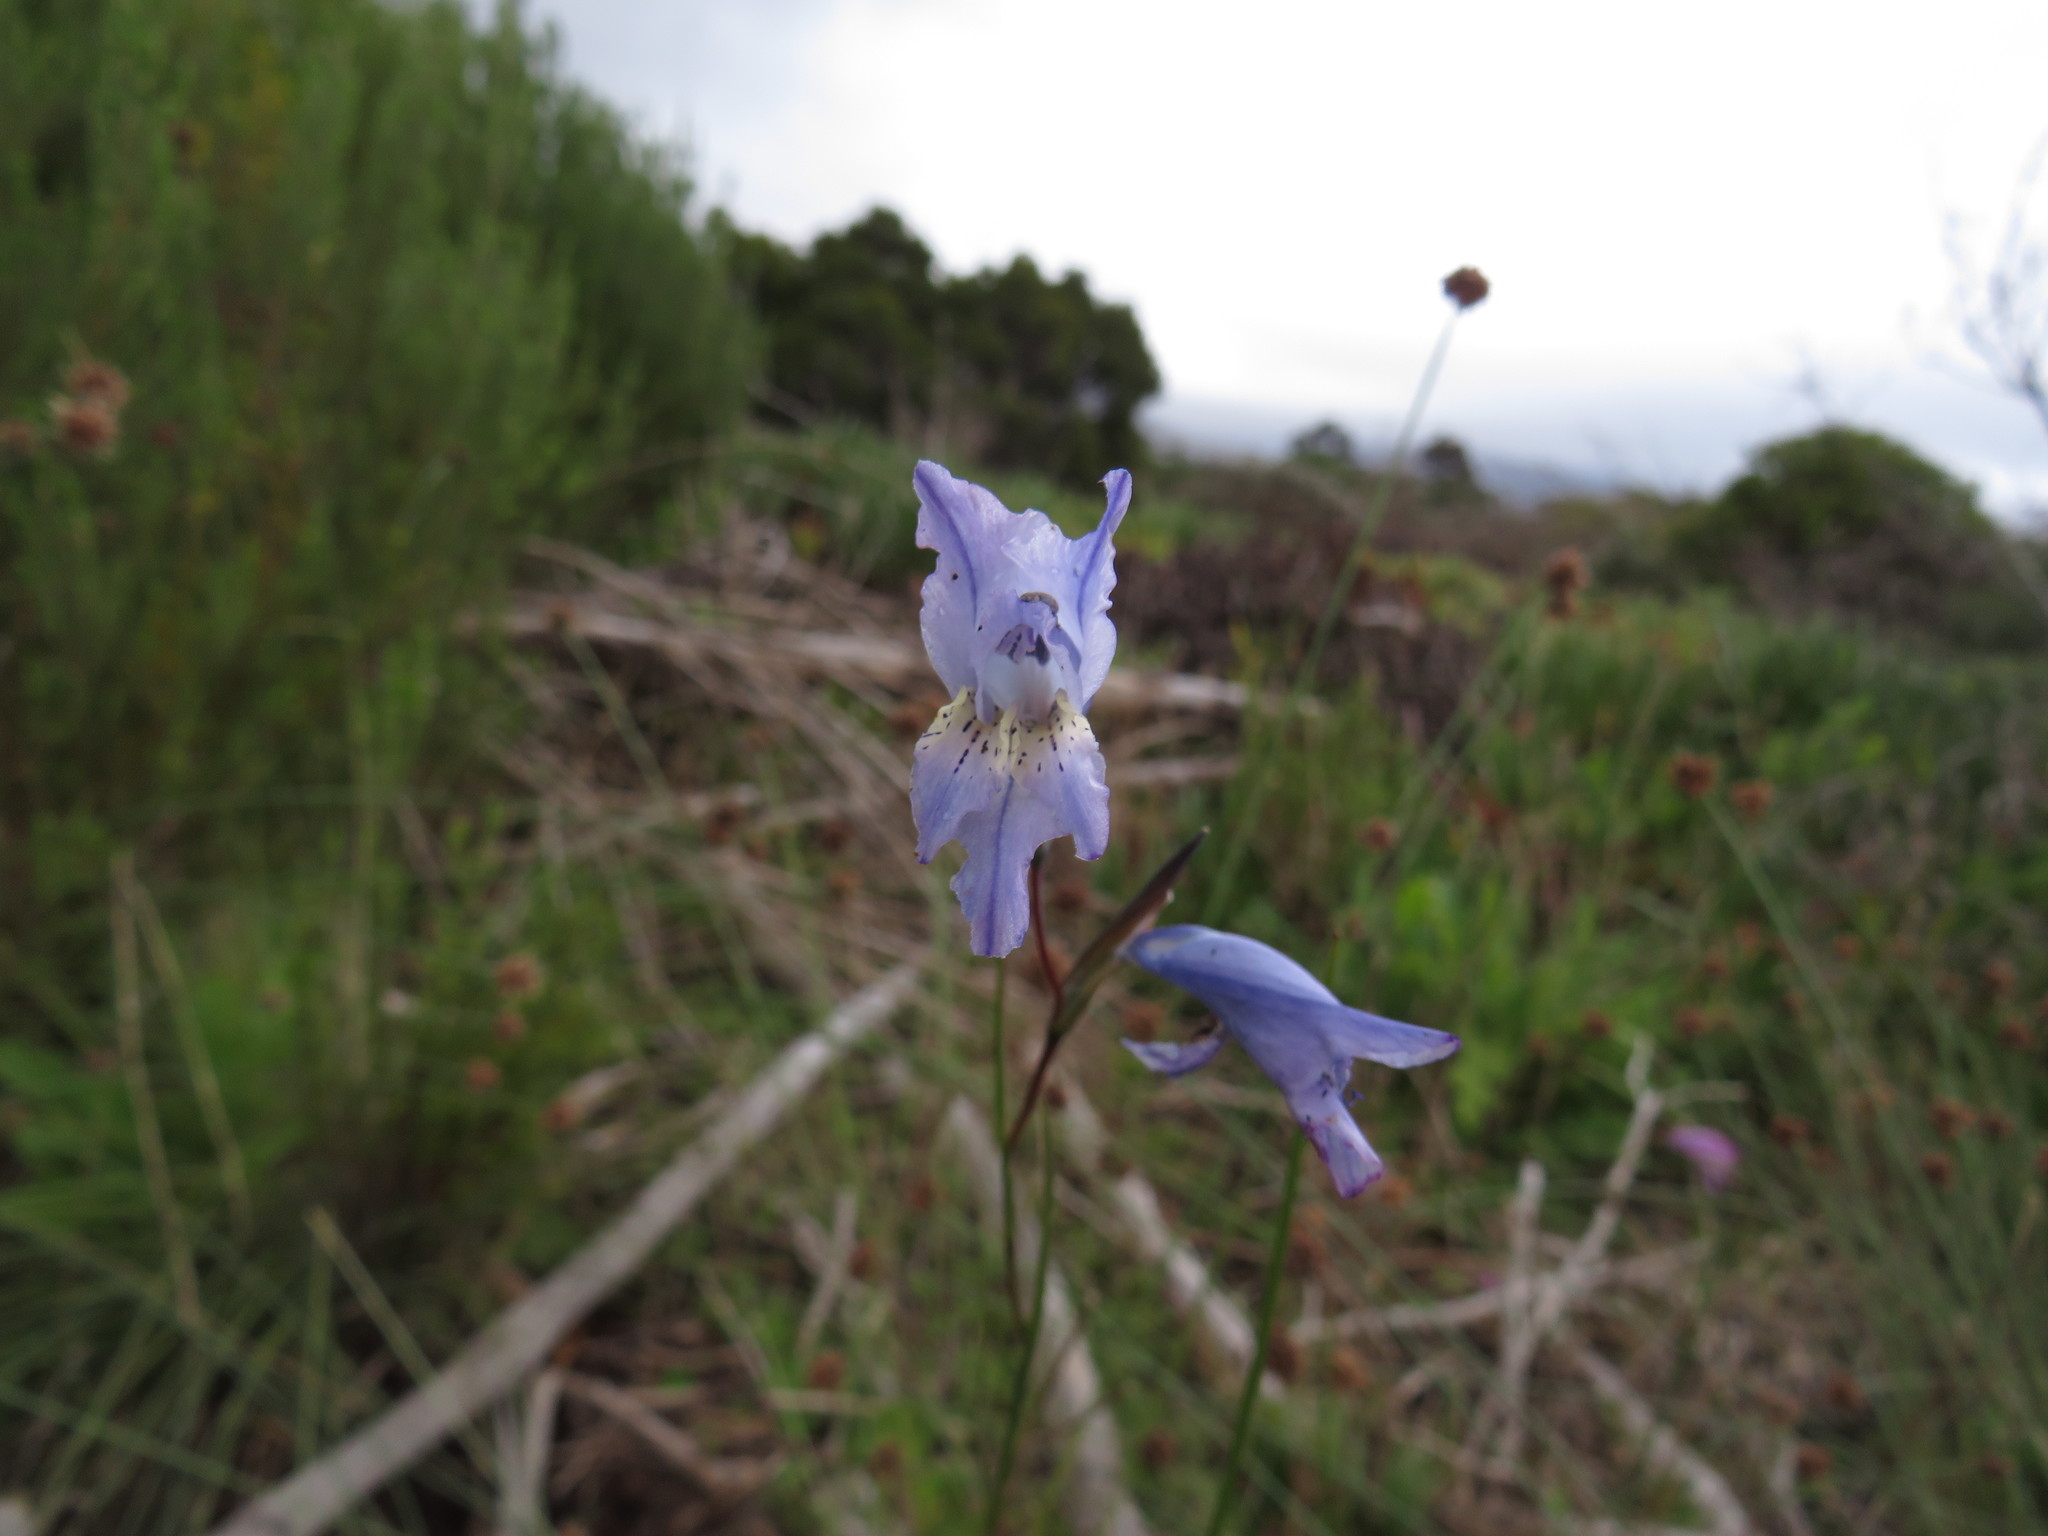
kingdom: Plantae
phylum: Tracheophyta
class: Liliopsida
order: Asparagales
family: Iridaceae
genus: Gladiolus
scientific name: Gladiolus gracilis
